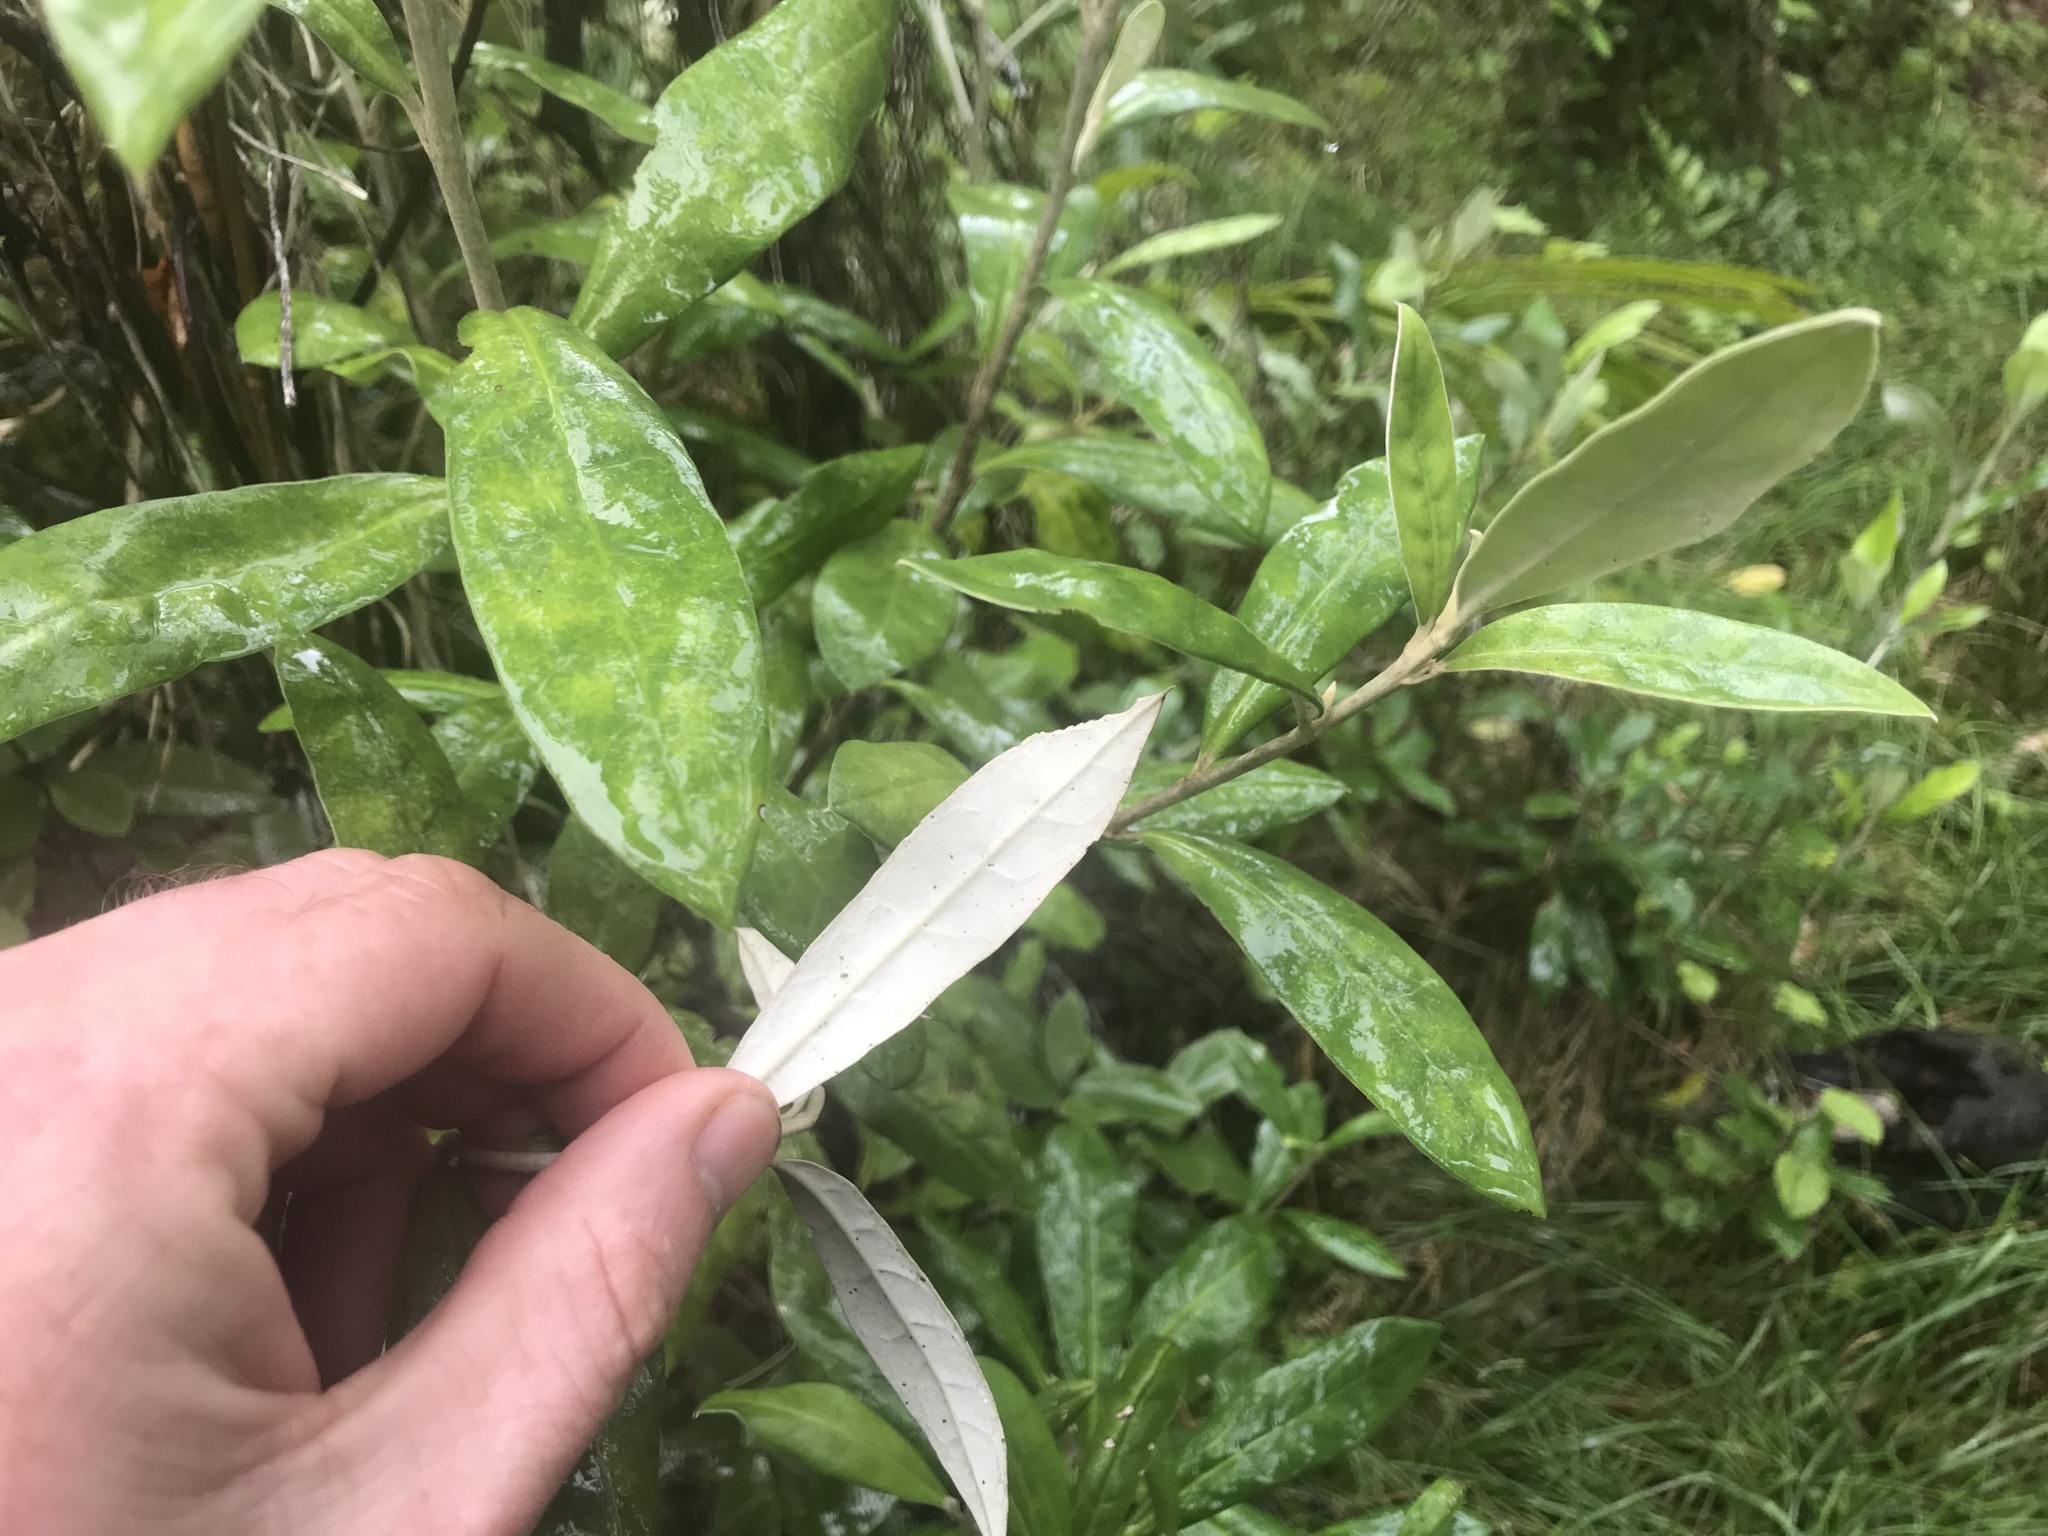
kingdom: Plantae
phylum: Tracheophyta
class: Magnoliopsida
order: Asterales
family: Argophyllaceae
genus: Corokia
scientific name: Corokia macrocarpa
